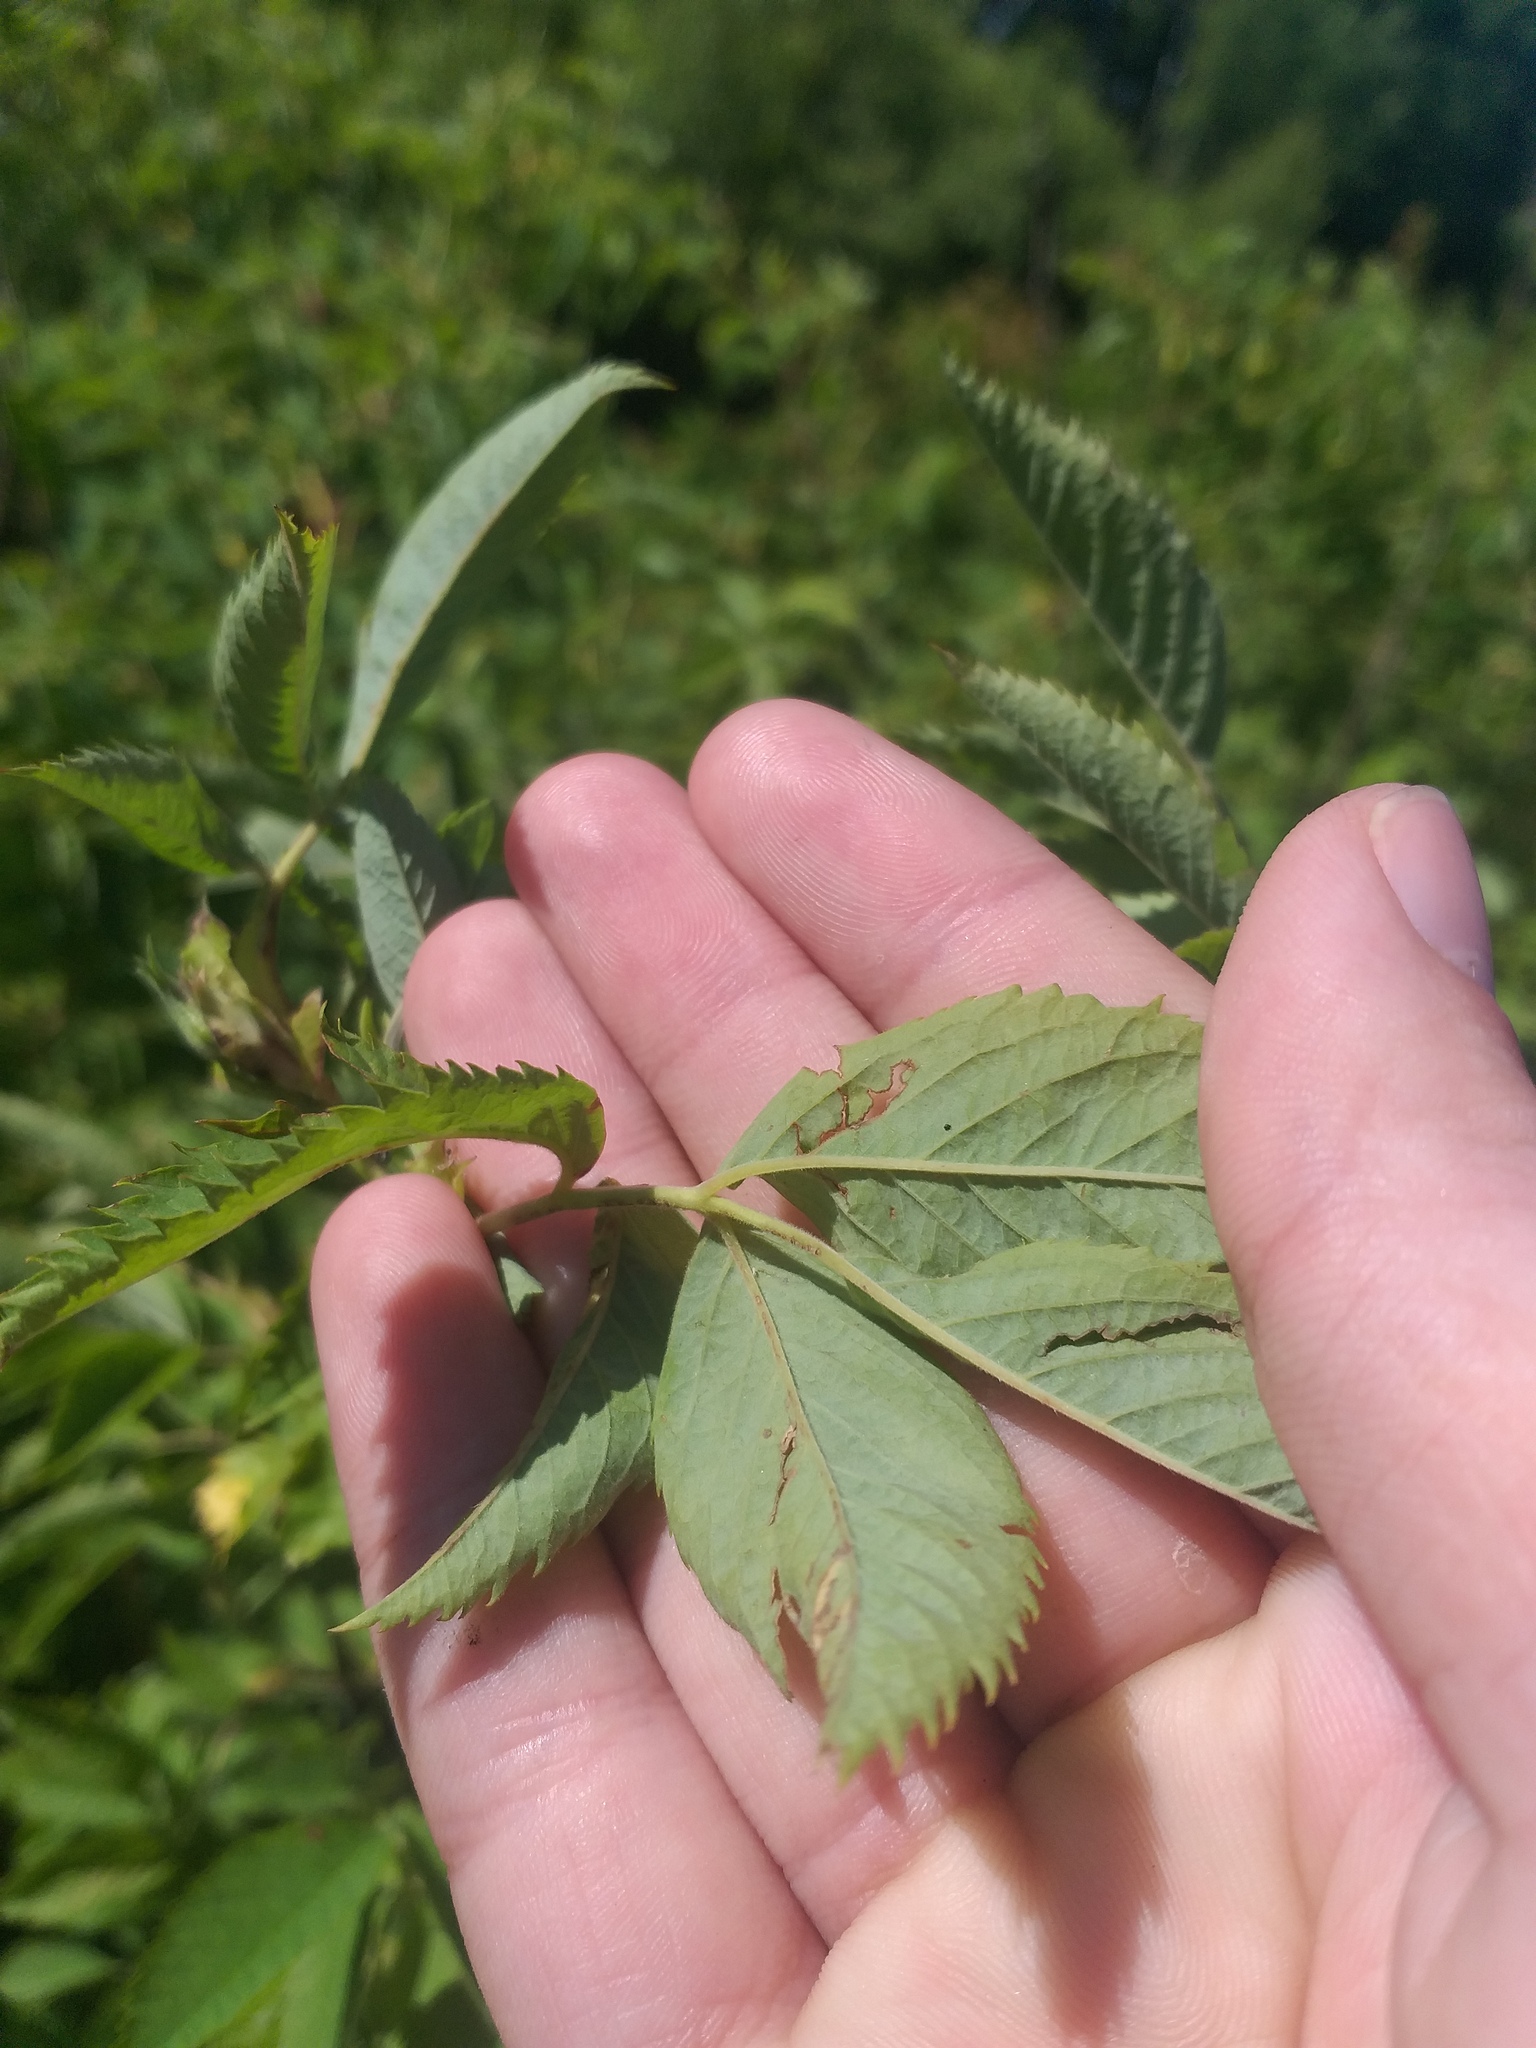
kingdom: Plantae
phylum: Tracheophyta
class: Magnoliopsida
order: Rosales
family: Rosaceae
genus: Rosa
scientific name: Rosa majalis
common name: Cinnamon rose
